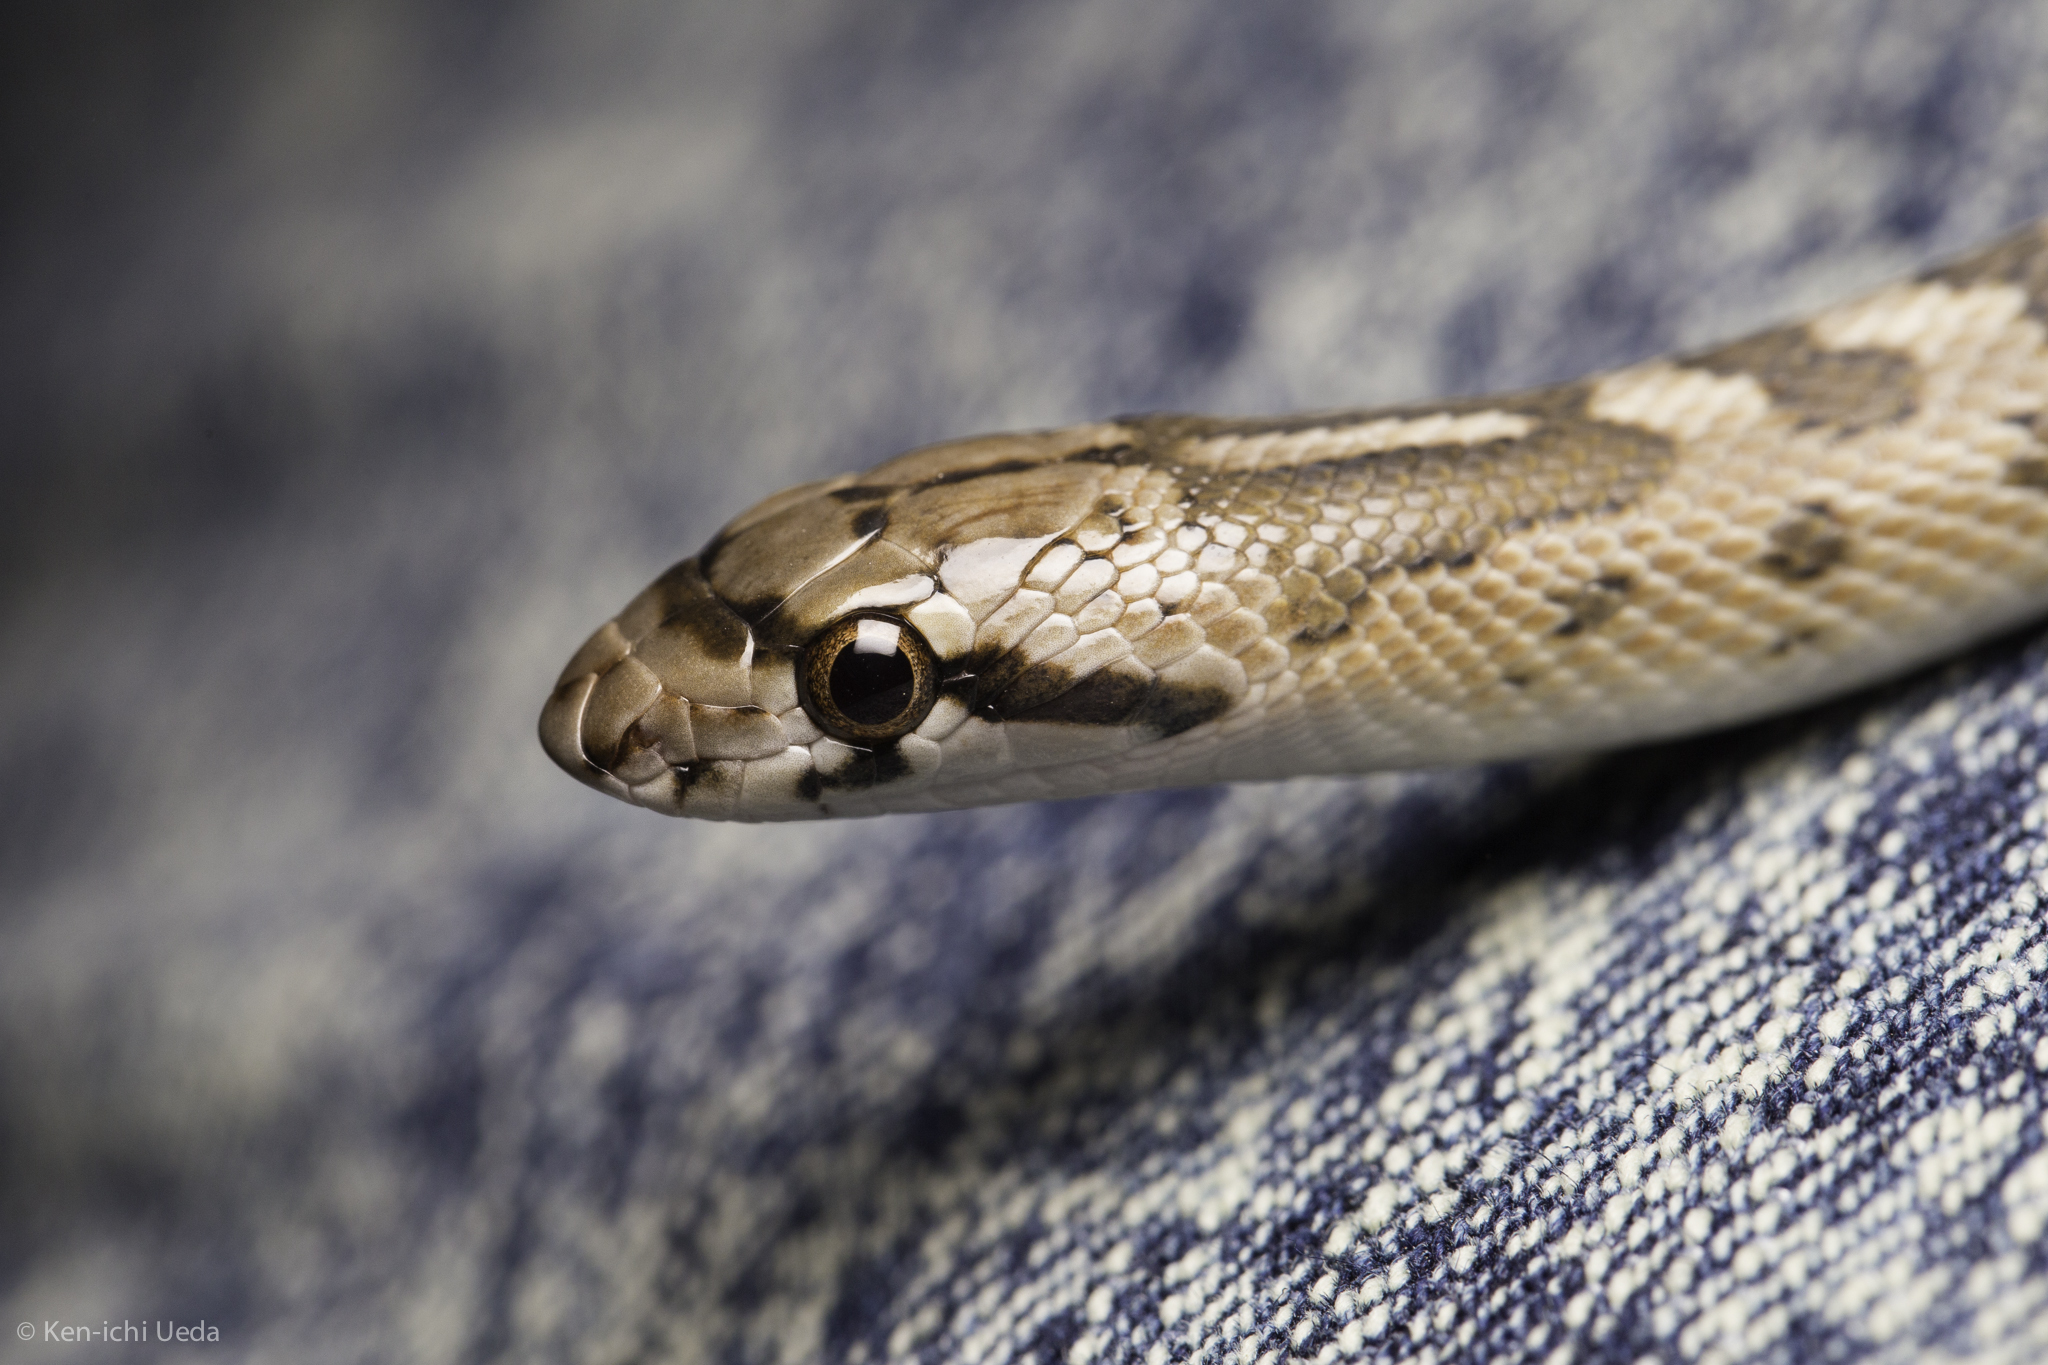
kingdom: Animalia
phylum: Chordata
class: Squamata
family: Colubridae
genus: Arizona
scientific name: Arizona elegans
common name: Glossy snake
